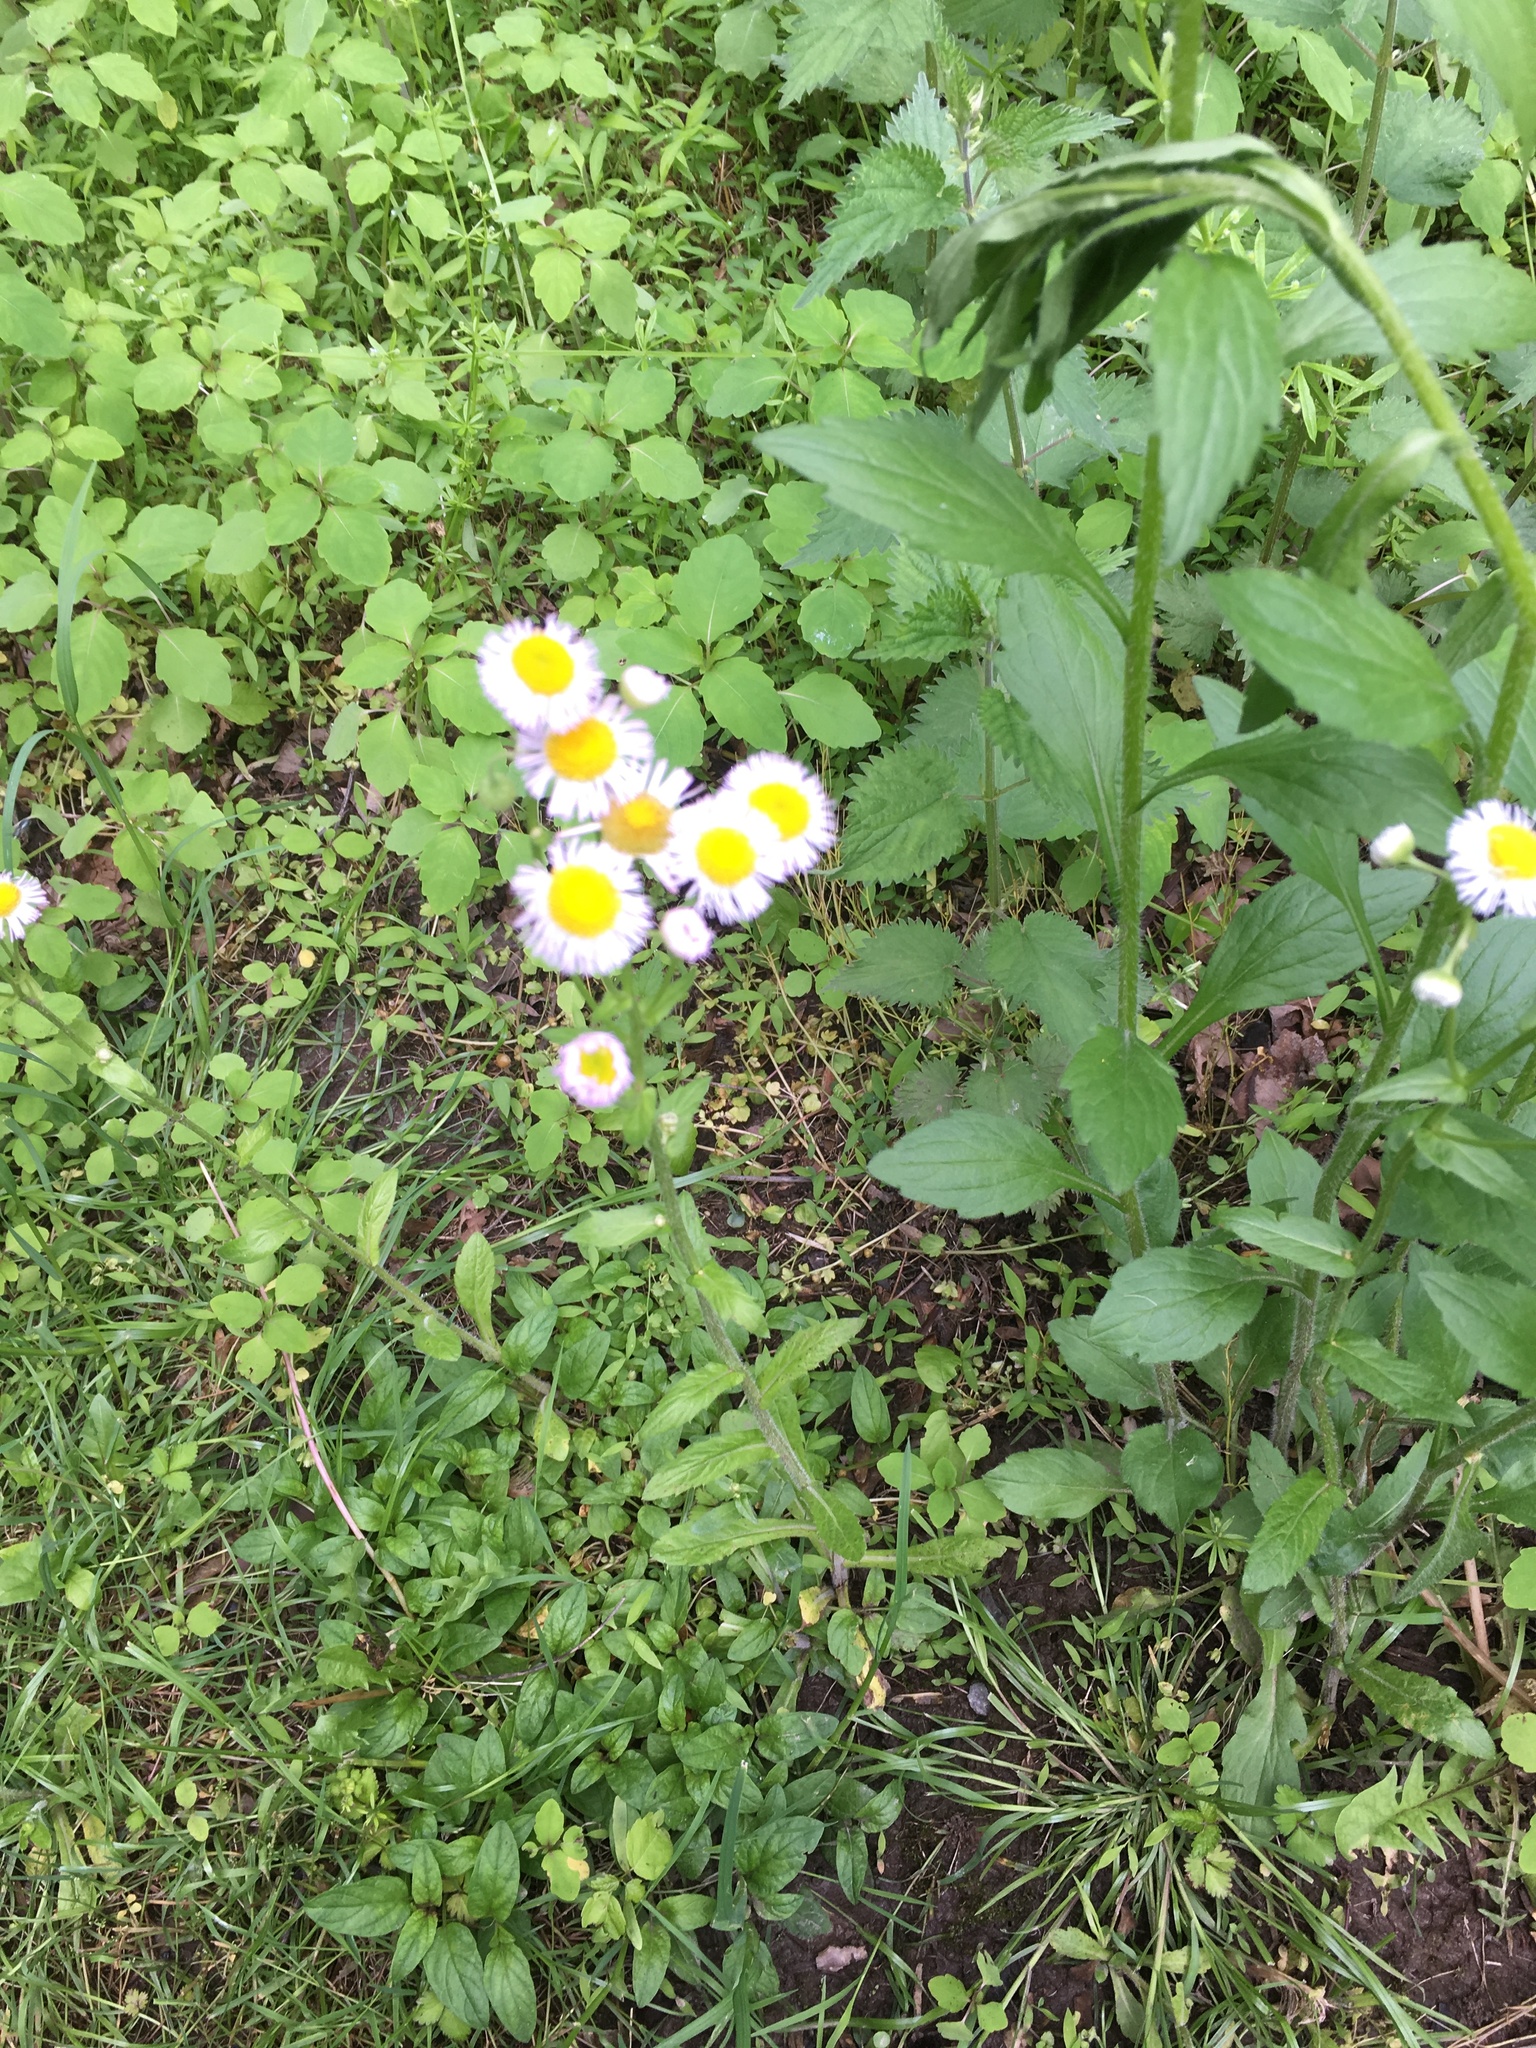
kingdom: Plantae
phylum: Tracheophyta
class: Magnoliopsida
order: Asterales
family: Asteraceae
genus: Erigeron
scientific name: Erigeron philadelphicus
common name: Robin's-plantain
